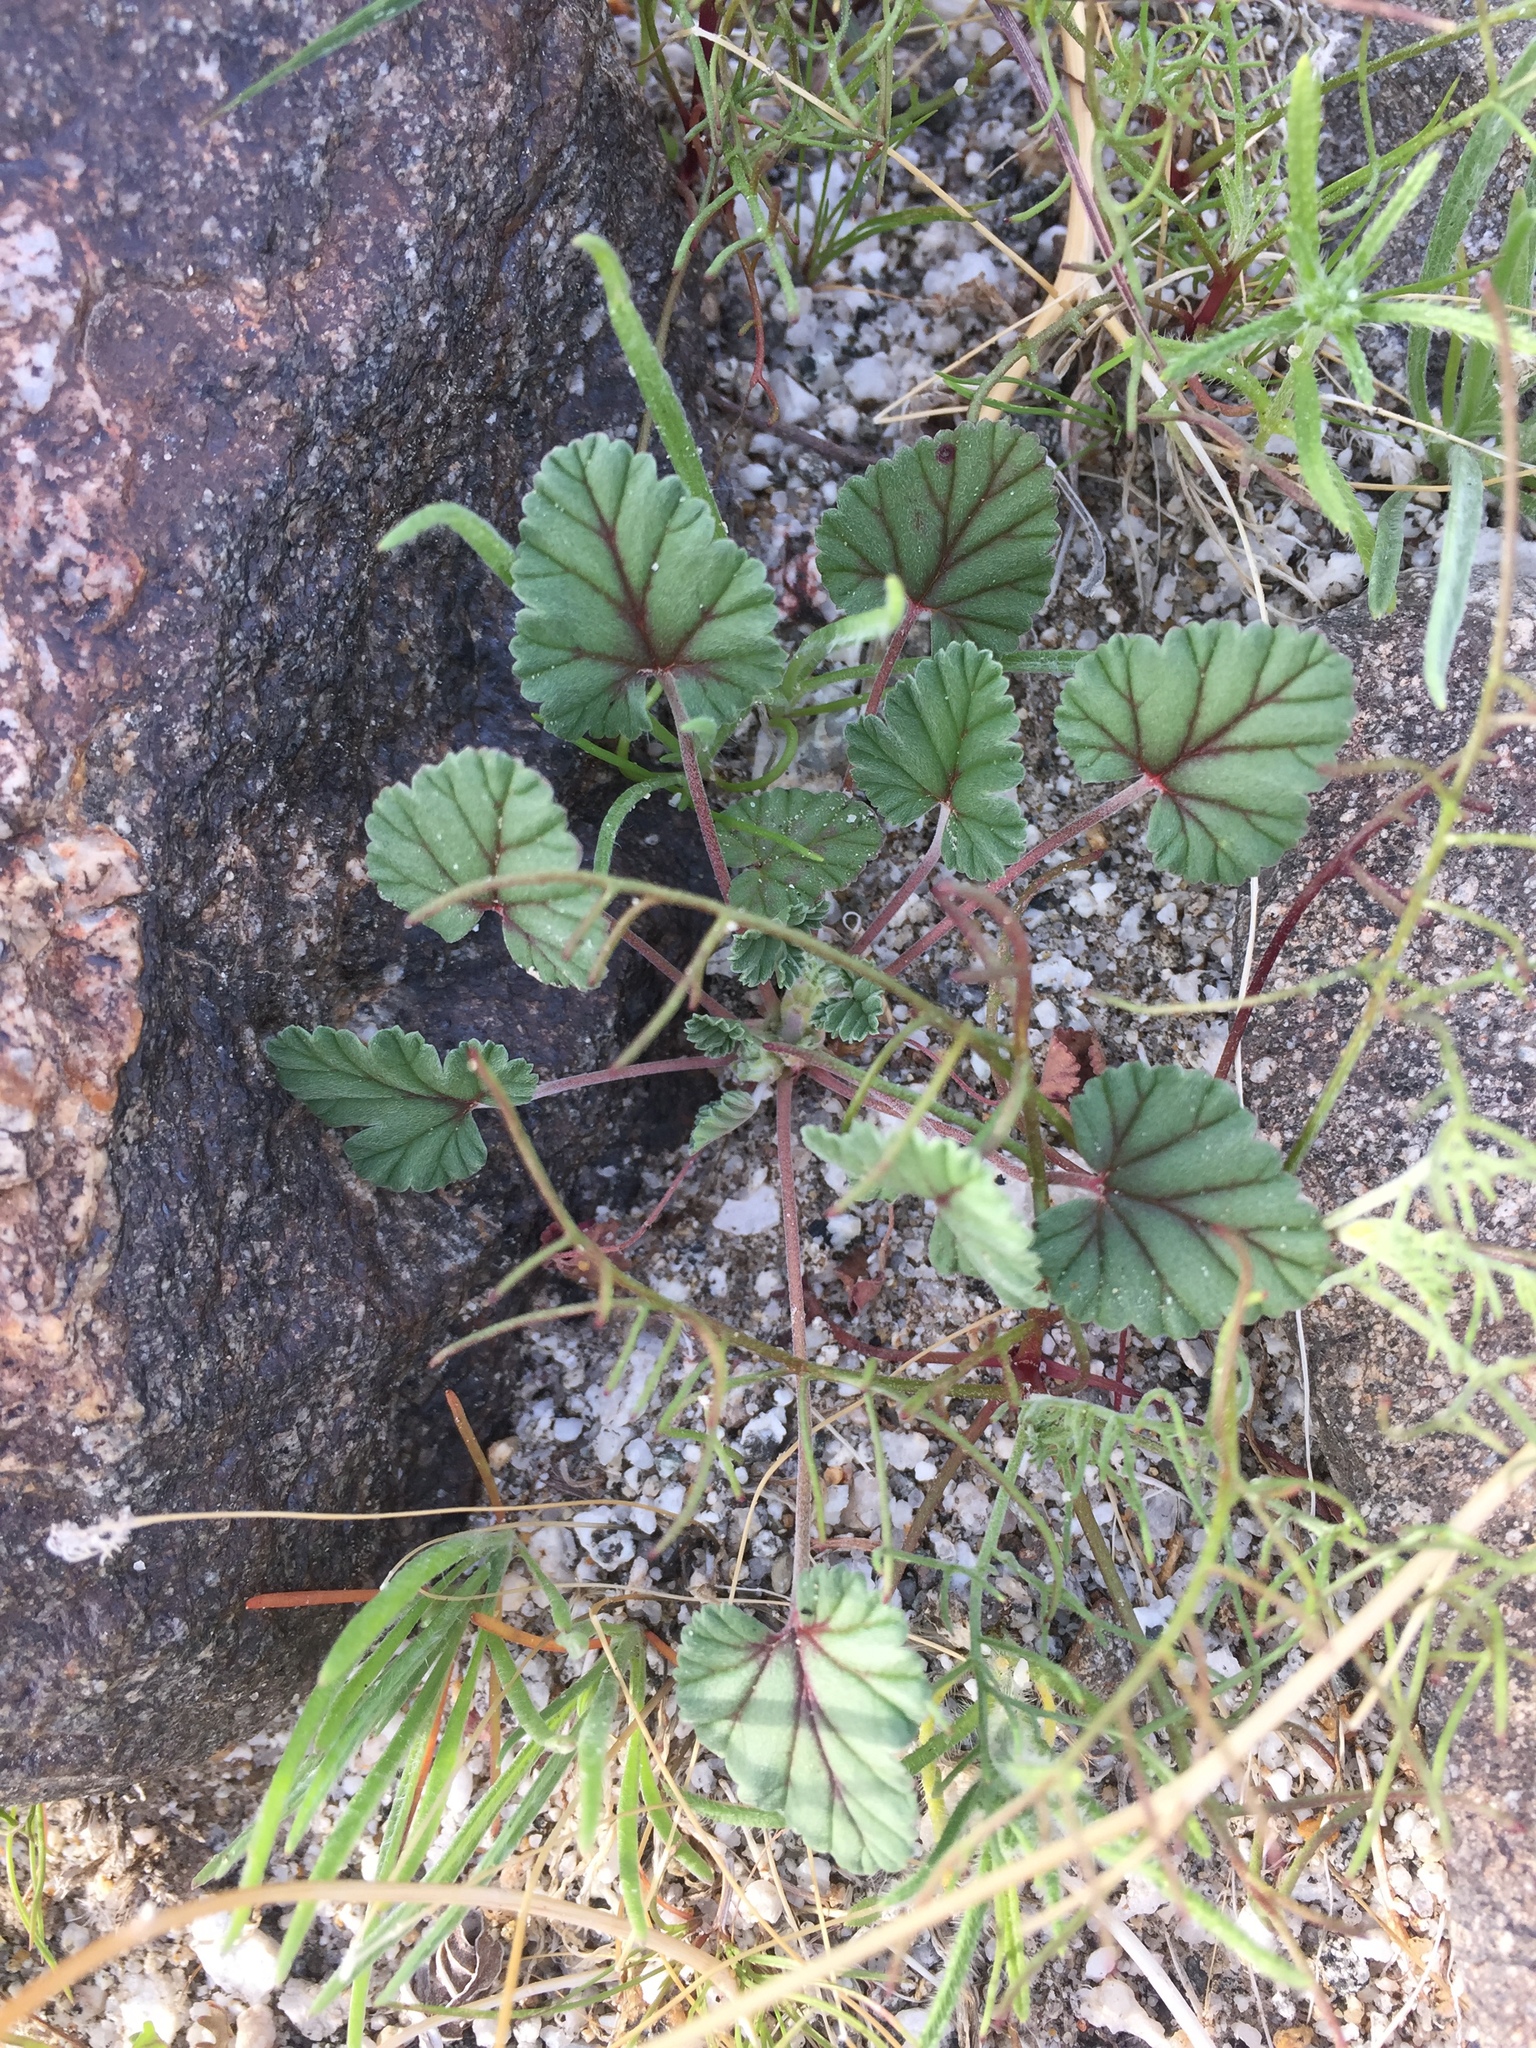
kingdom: Plantae
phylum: Tracheophyta
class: Magnoliopsida
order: Geraniales
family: Geraniaceae
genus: Erodium
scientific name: Erodium texanum
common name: Texas stork's-bill
